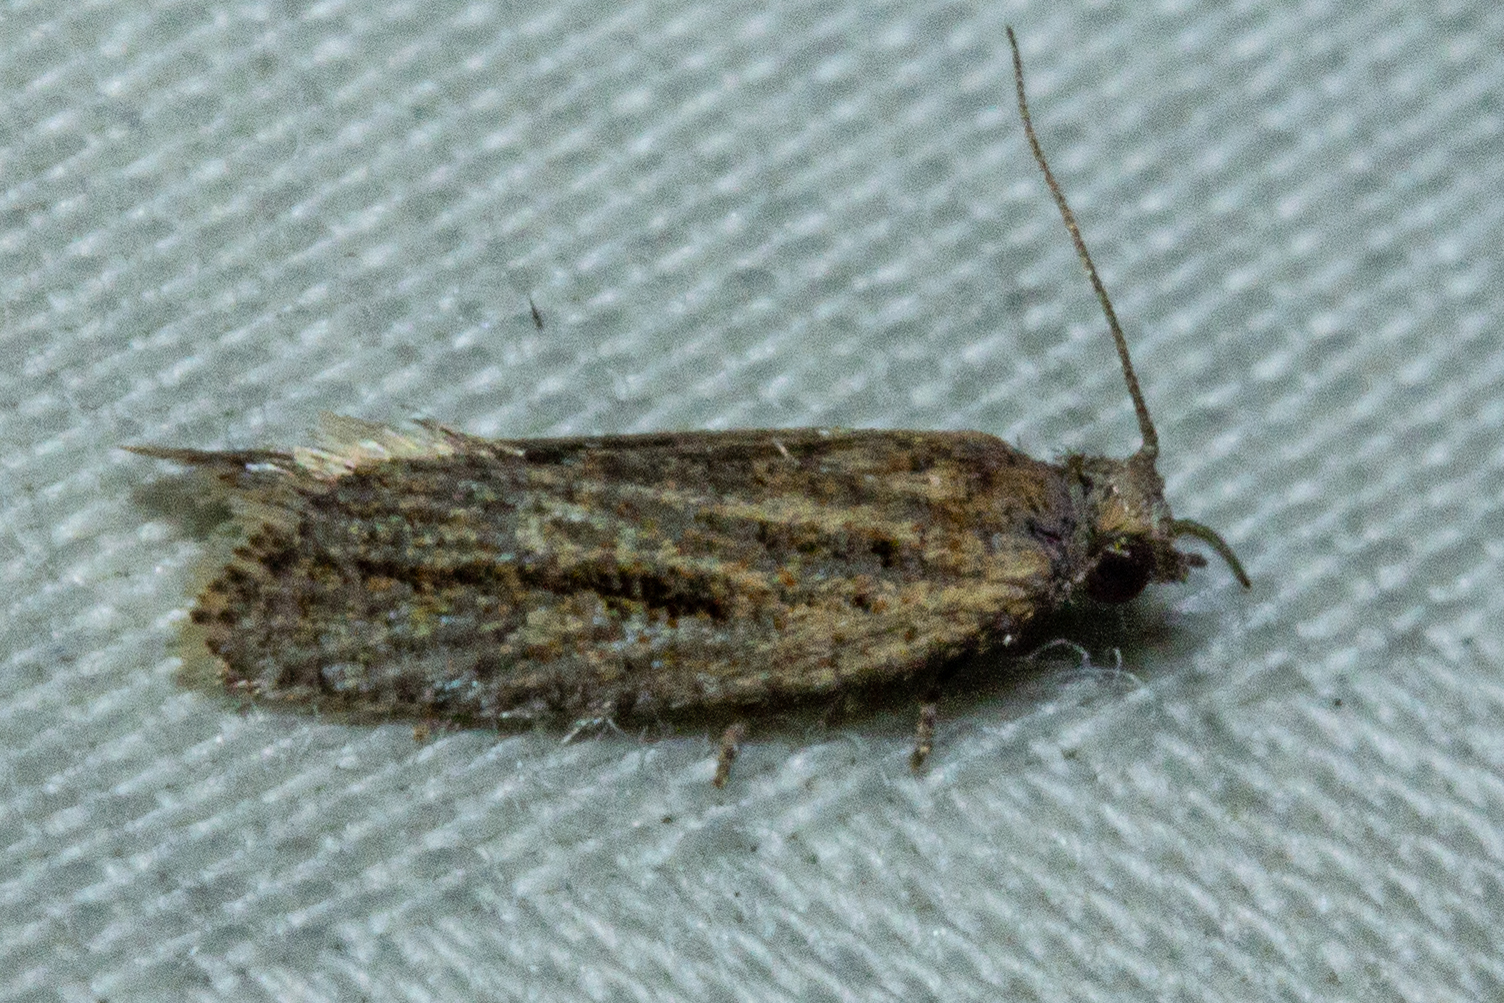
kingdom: Animalia
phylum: Arthropoda
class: Insecta
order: Lepidoptera
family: Tortricidae
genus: Capua
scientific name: Capua semiferana
